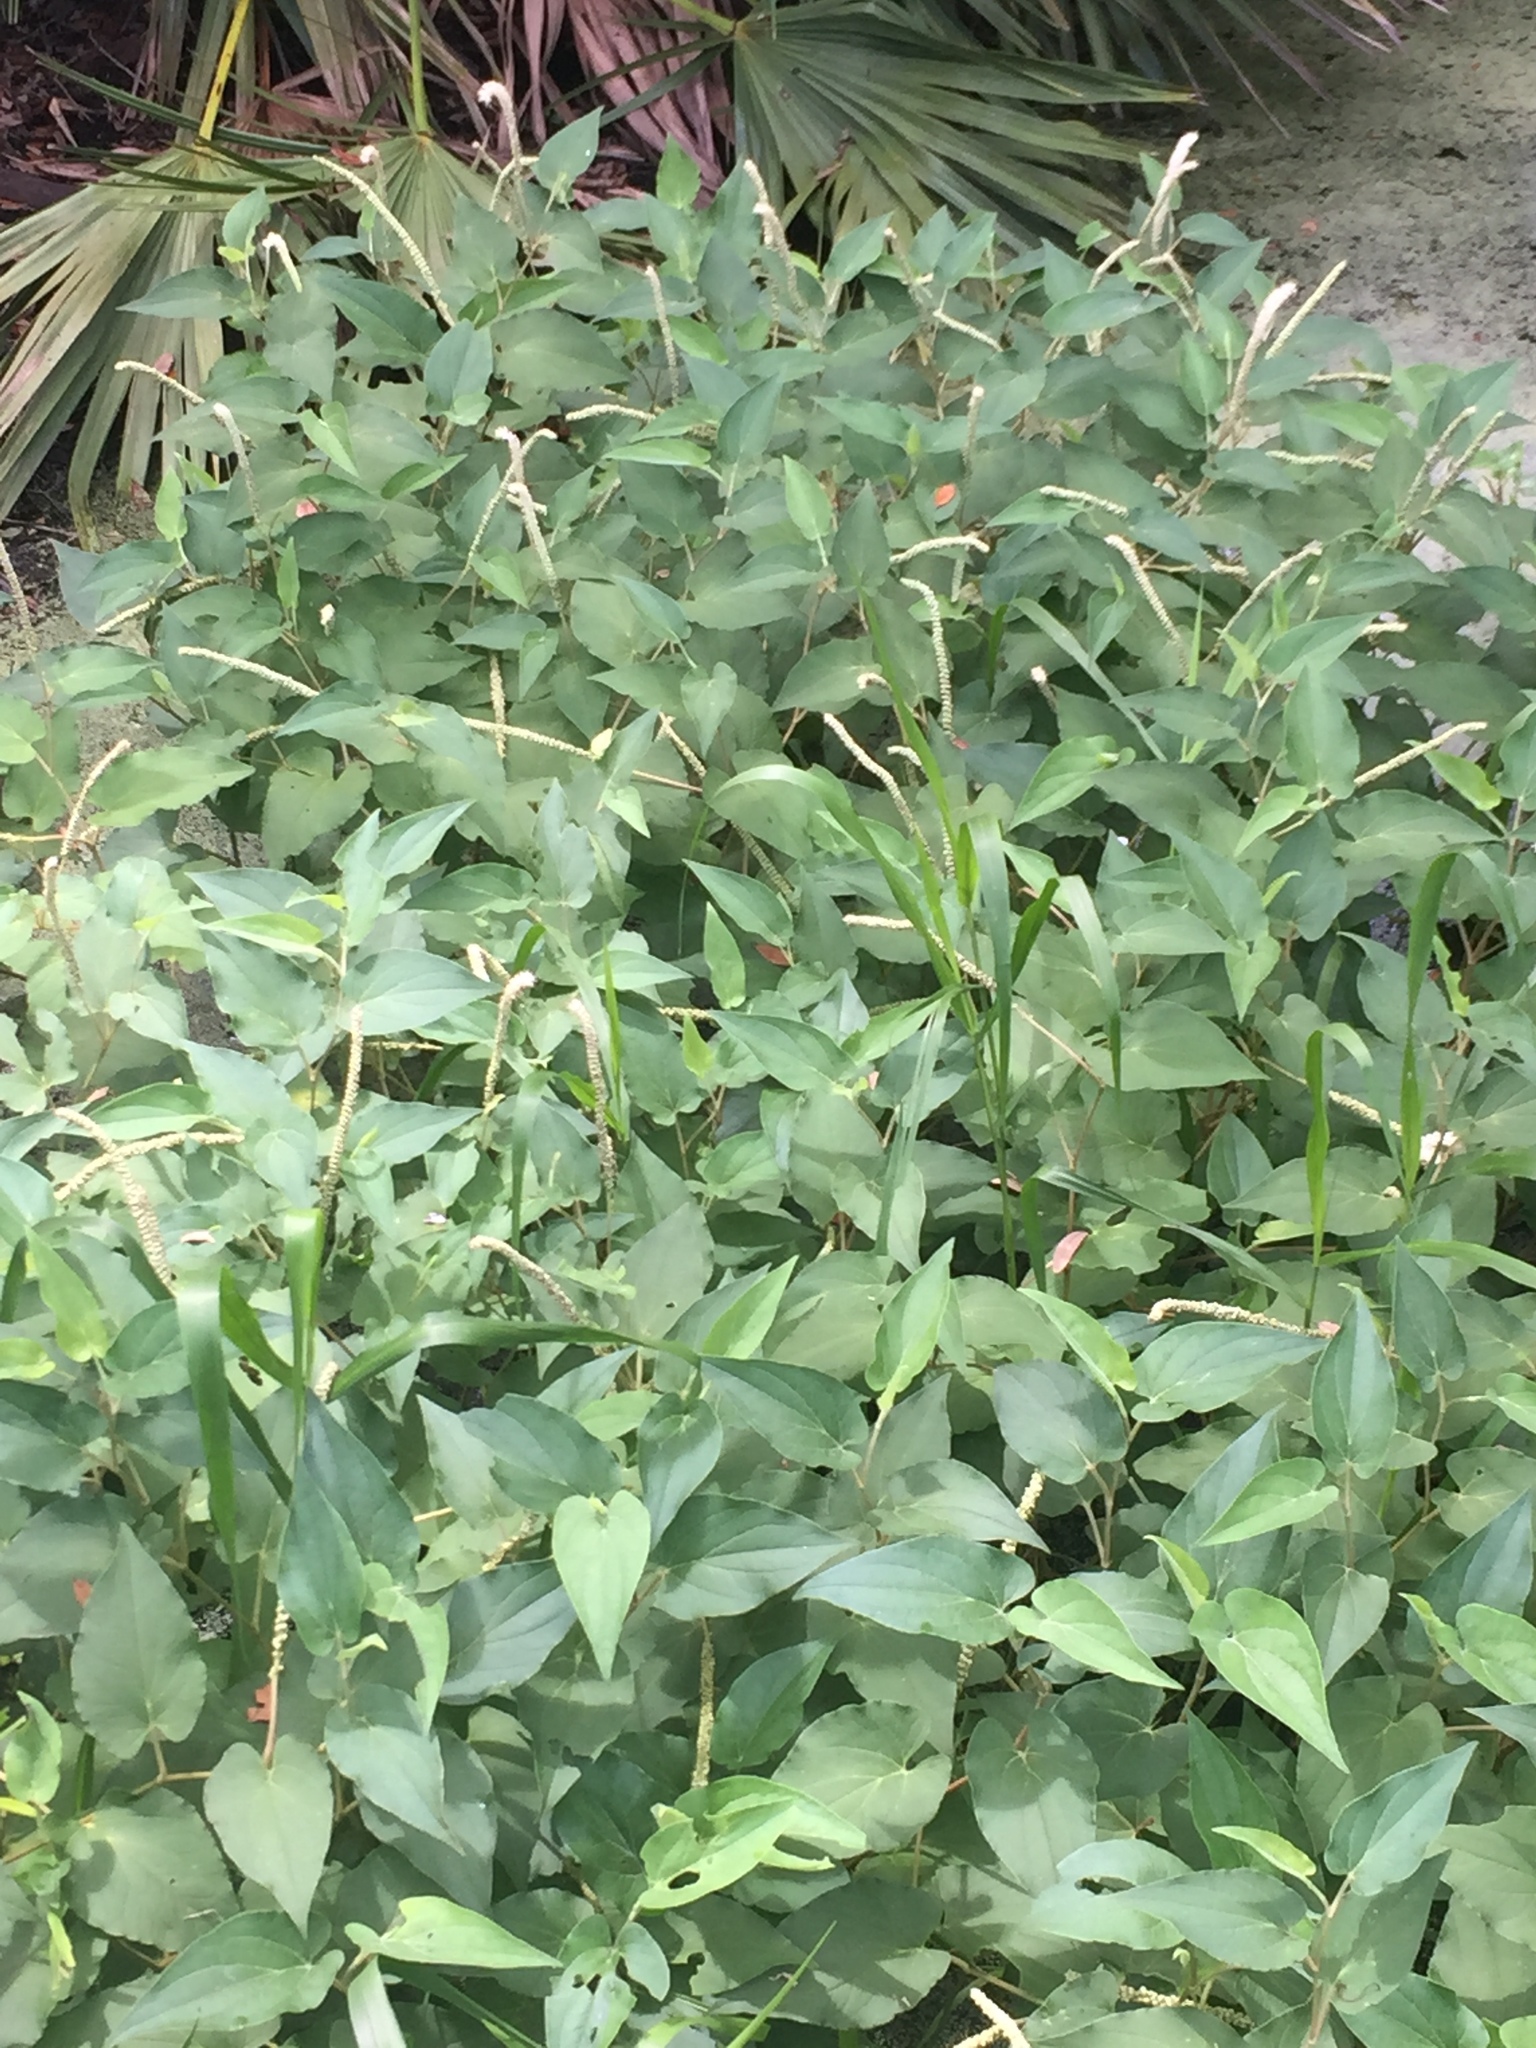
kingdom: Plantae
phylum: Tracheophyta
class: Magnoliopsida
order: Piperales
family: Saururaceae
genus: Saururus
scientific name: Saururus cernuus
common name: Lizard's-tail
